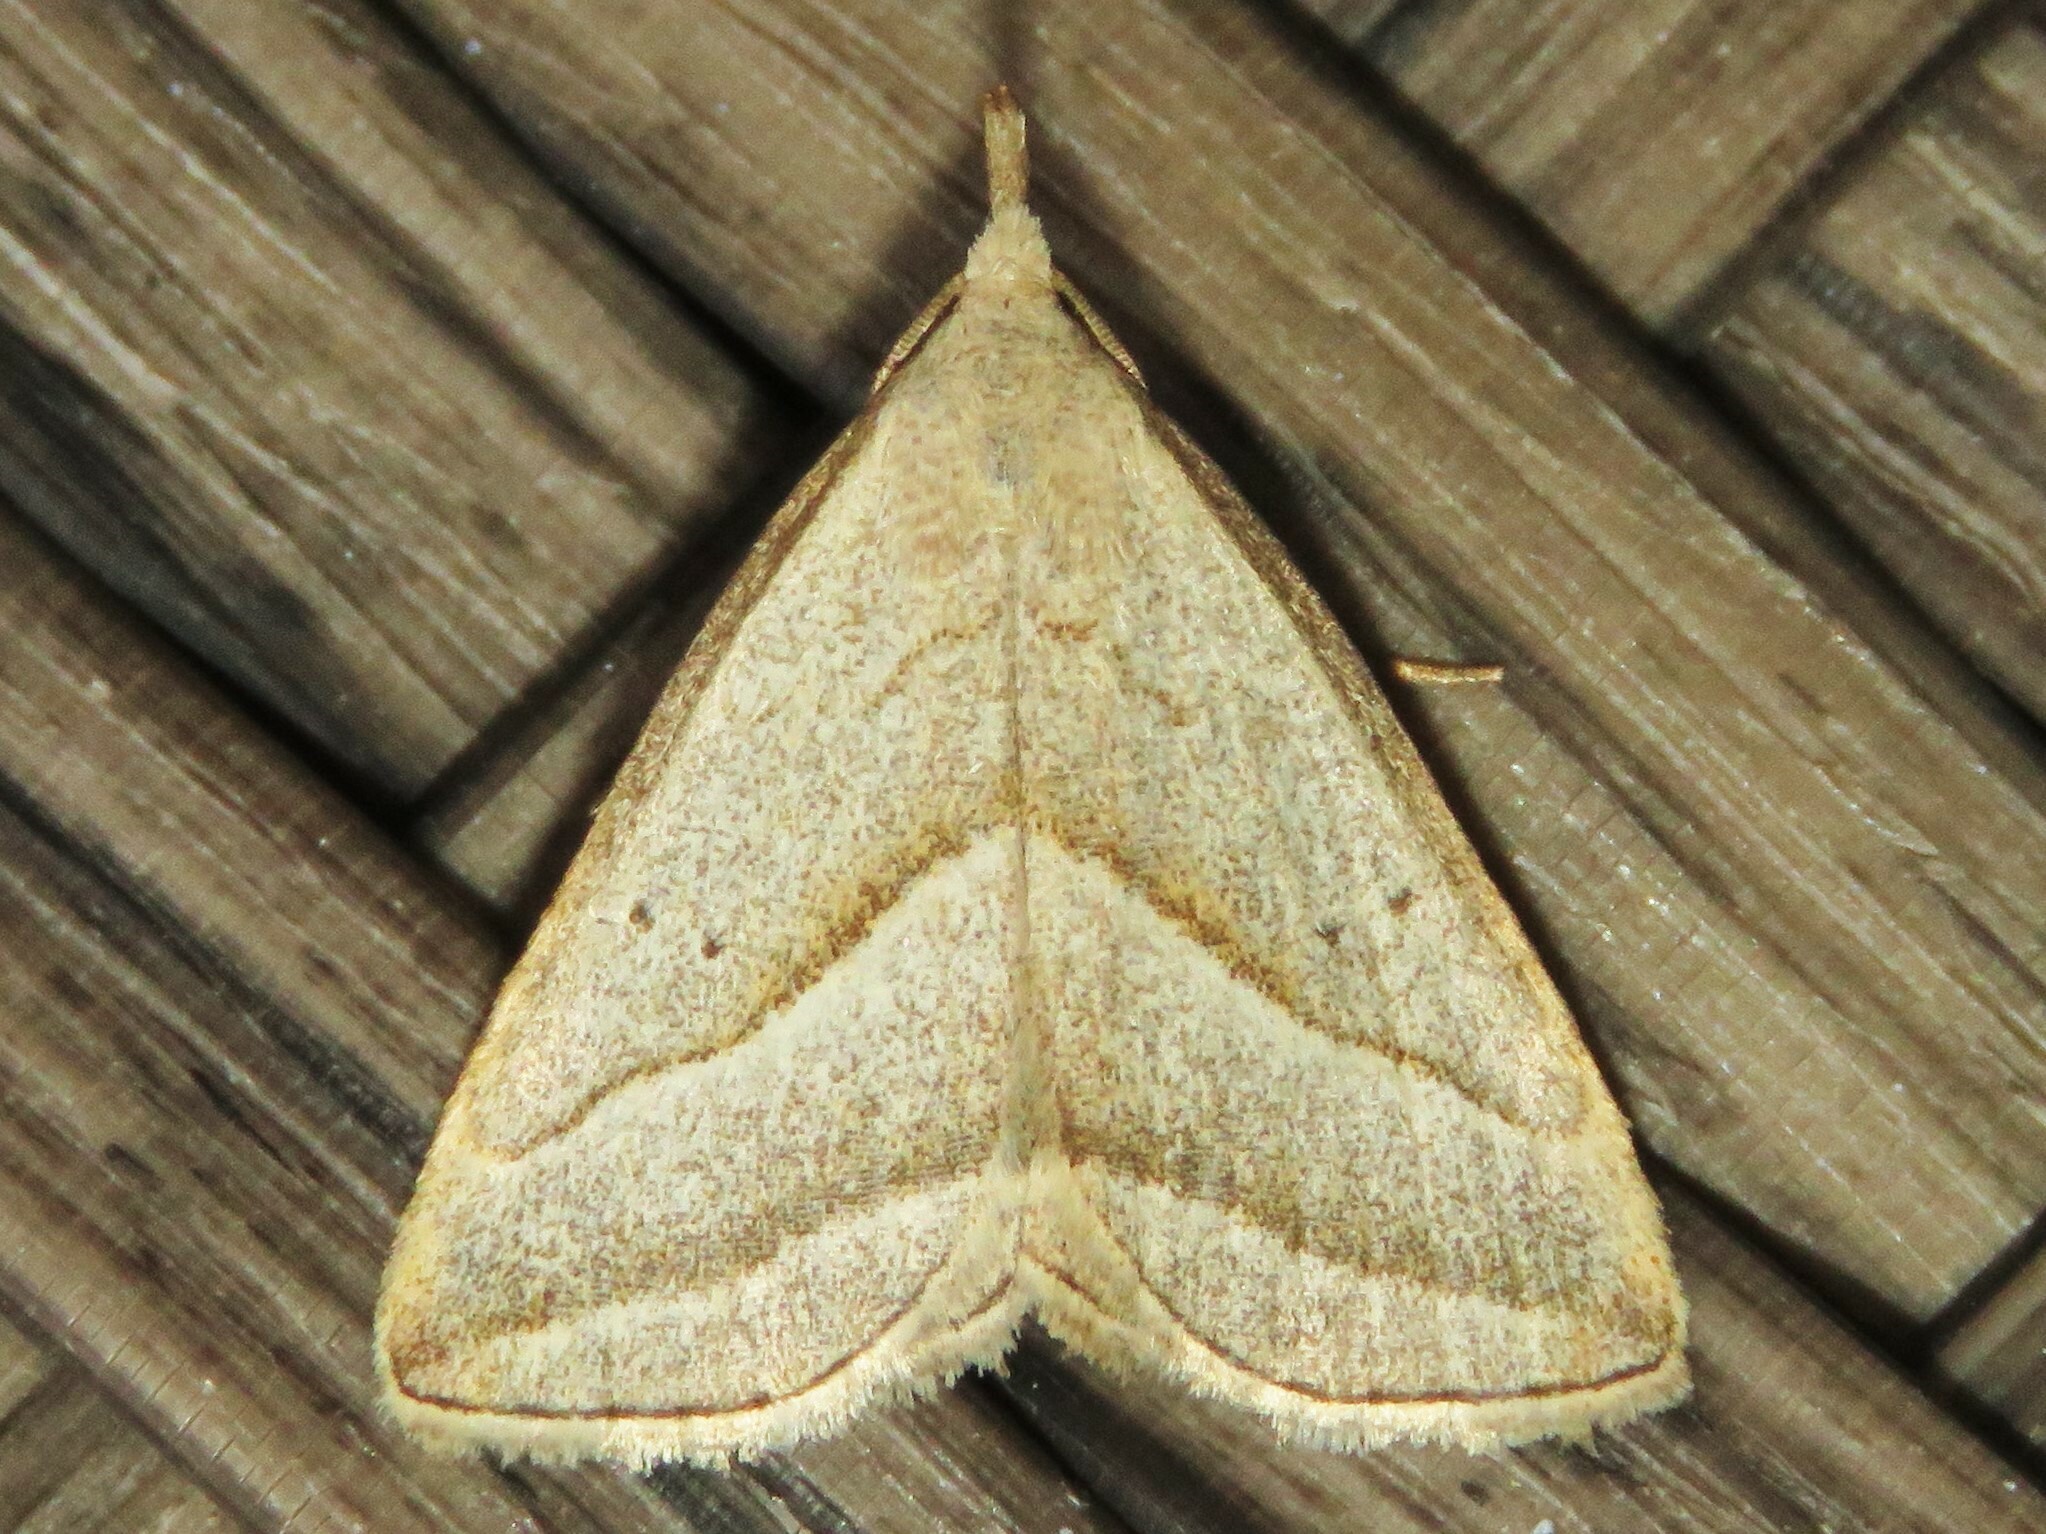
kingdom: Animalia
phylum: Arthropoda
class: Insecta
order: Lepidoptera
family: Erebidae
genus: Macrochilo
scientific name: Macrochilo absorptalis
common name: Slant-lined owlet
